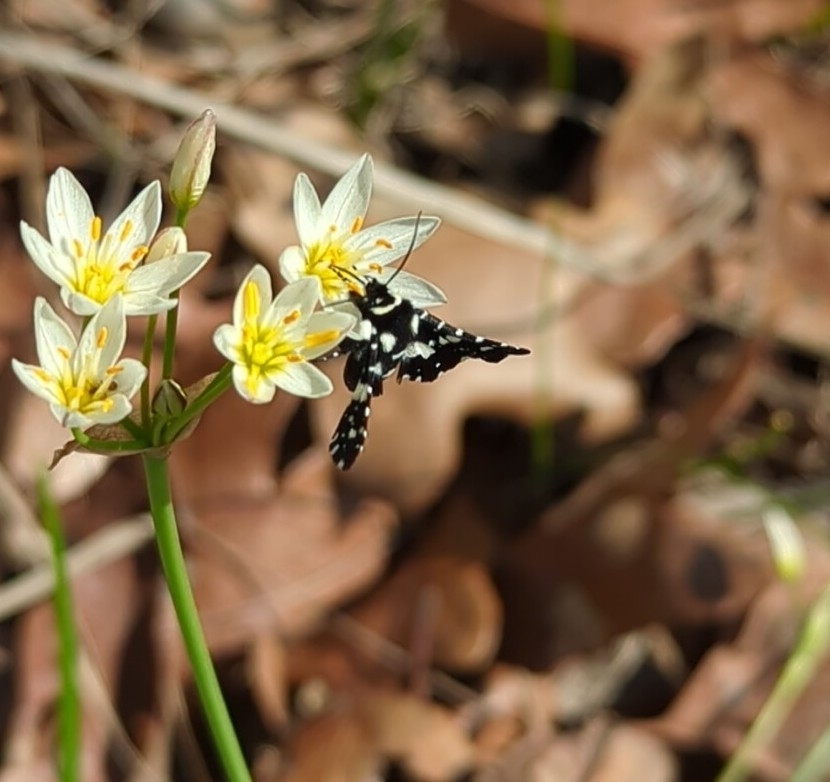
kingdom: Animalia
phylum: Arthropoda
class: Insecta
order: Lepidoptera
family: Thyrididae
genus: Pseudothyris
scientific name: Pseudothyris sepulchralis
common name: Mournful thyris moth
